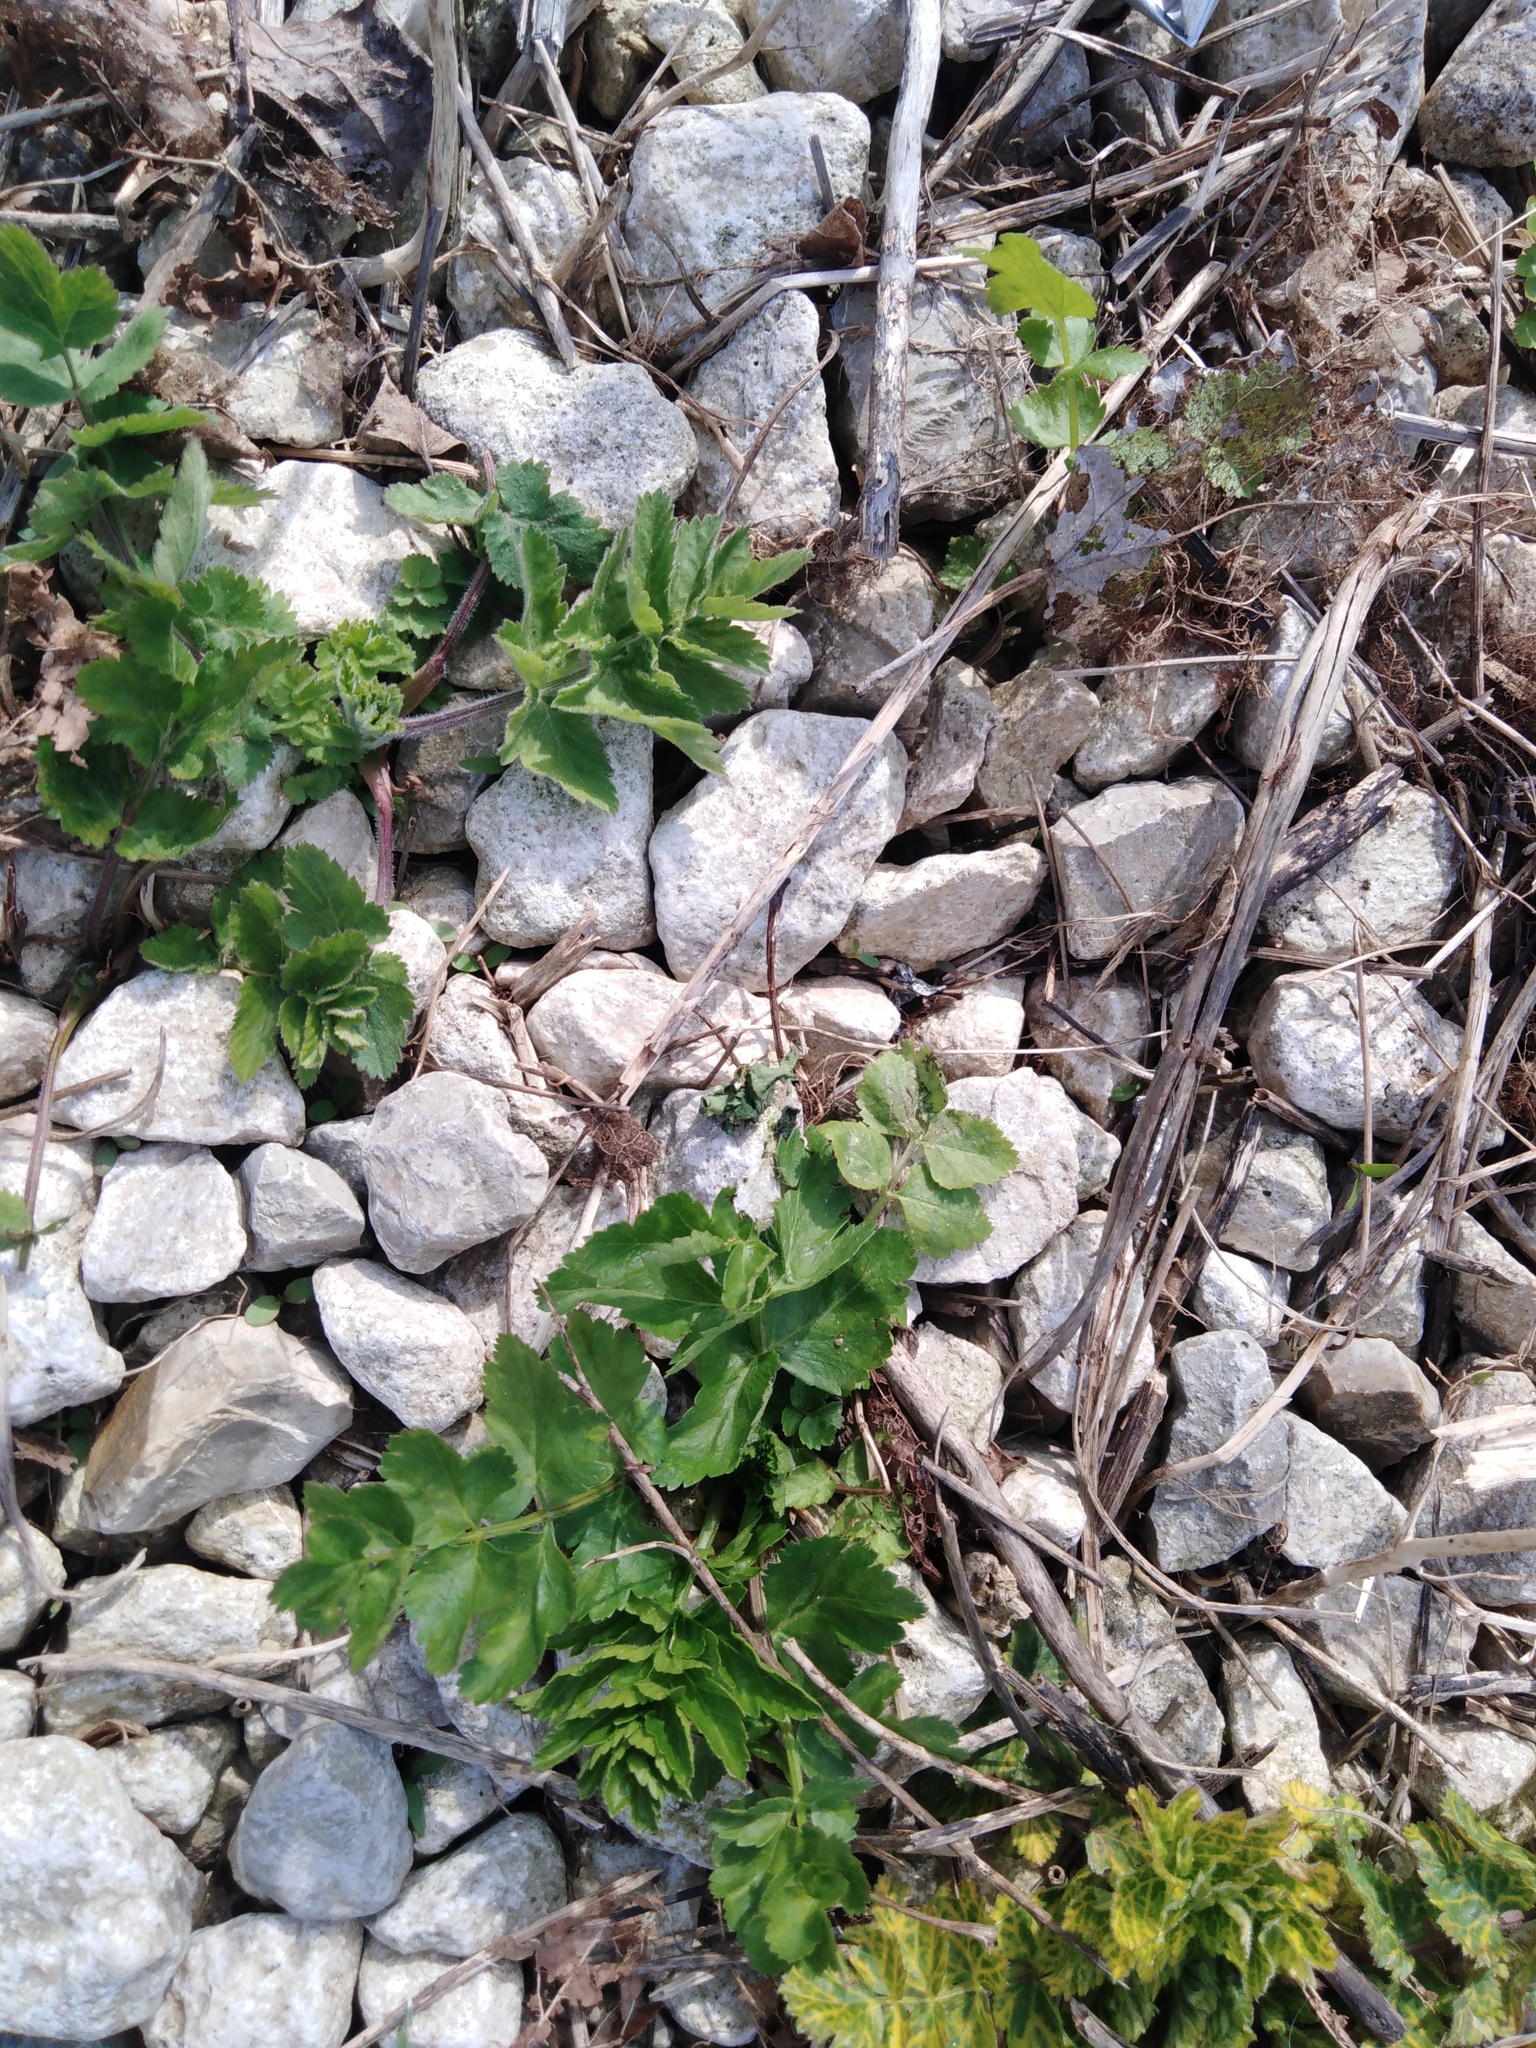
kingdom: Plantae
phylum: Tracheophyta
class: Magnoliopsida
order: Apiales
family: Apiaceae
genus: Pastinaca
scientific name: Pastinaca sativa
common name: Wild parsnip
